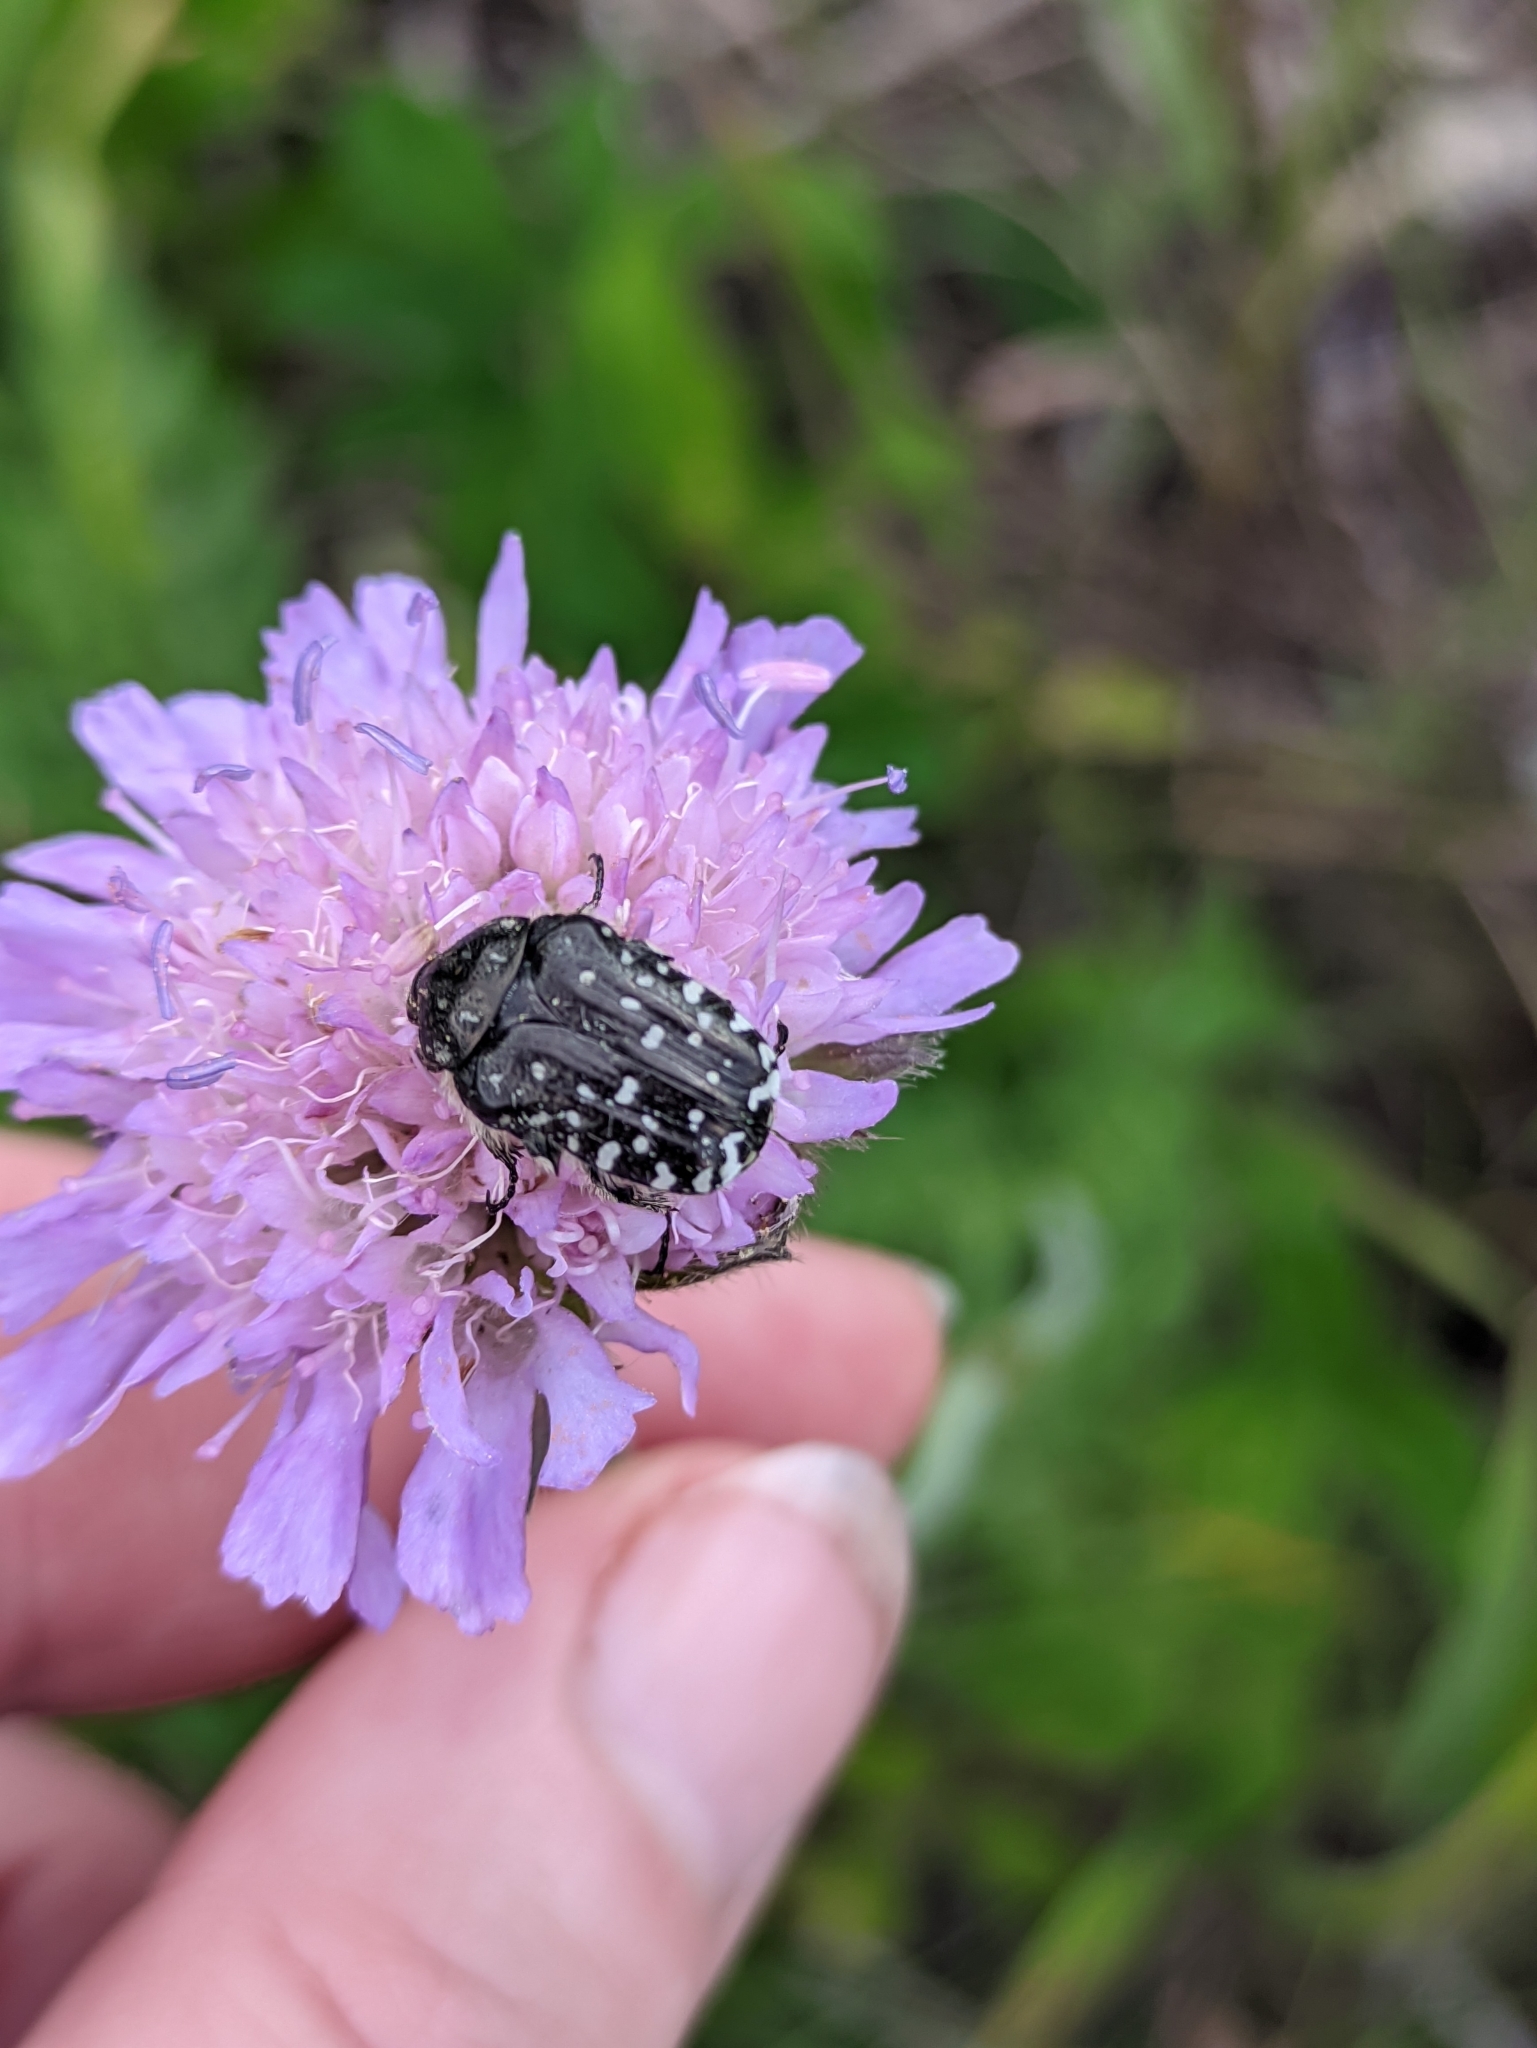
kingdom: Animalia
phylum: Arthropoda
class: Insecta
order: Coleoptera
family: Scarabaeidae
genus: Oxythyrea
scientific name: Oxythyrea funesta
